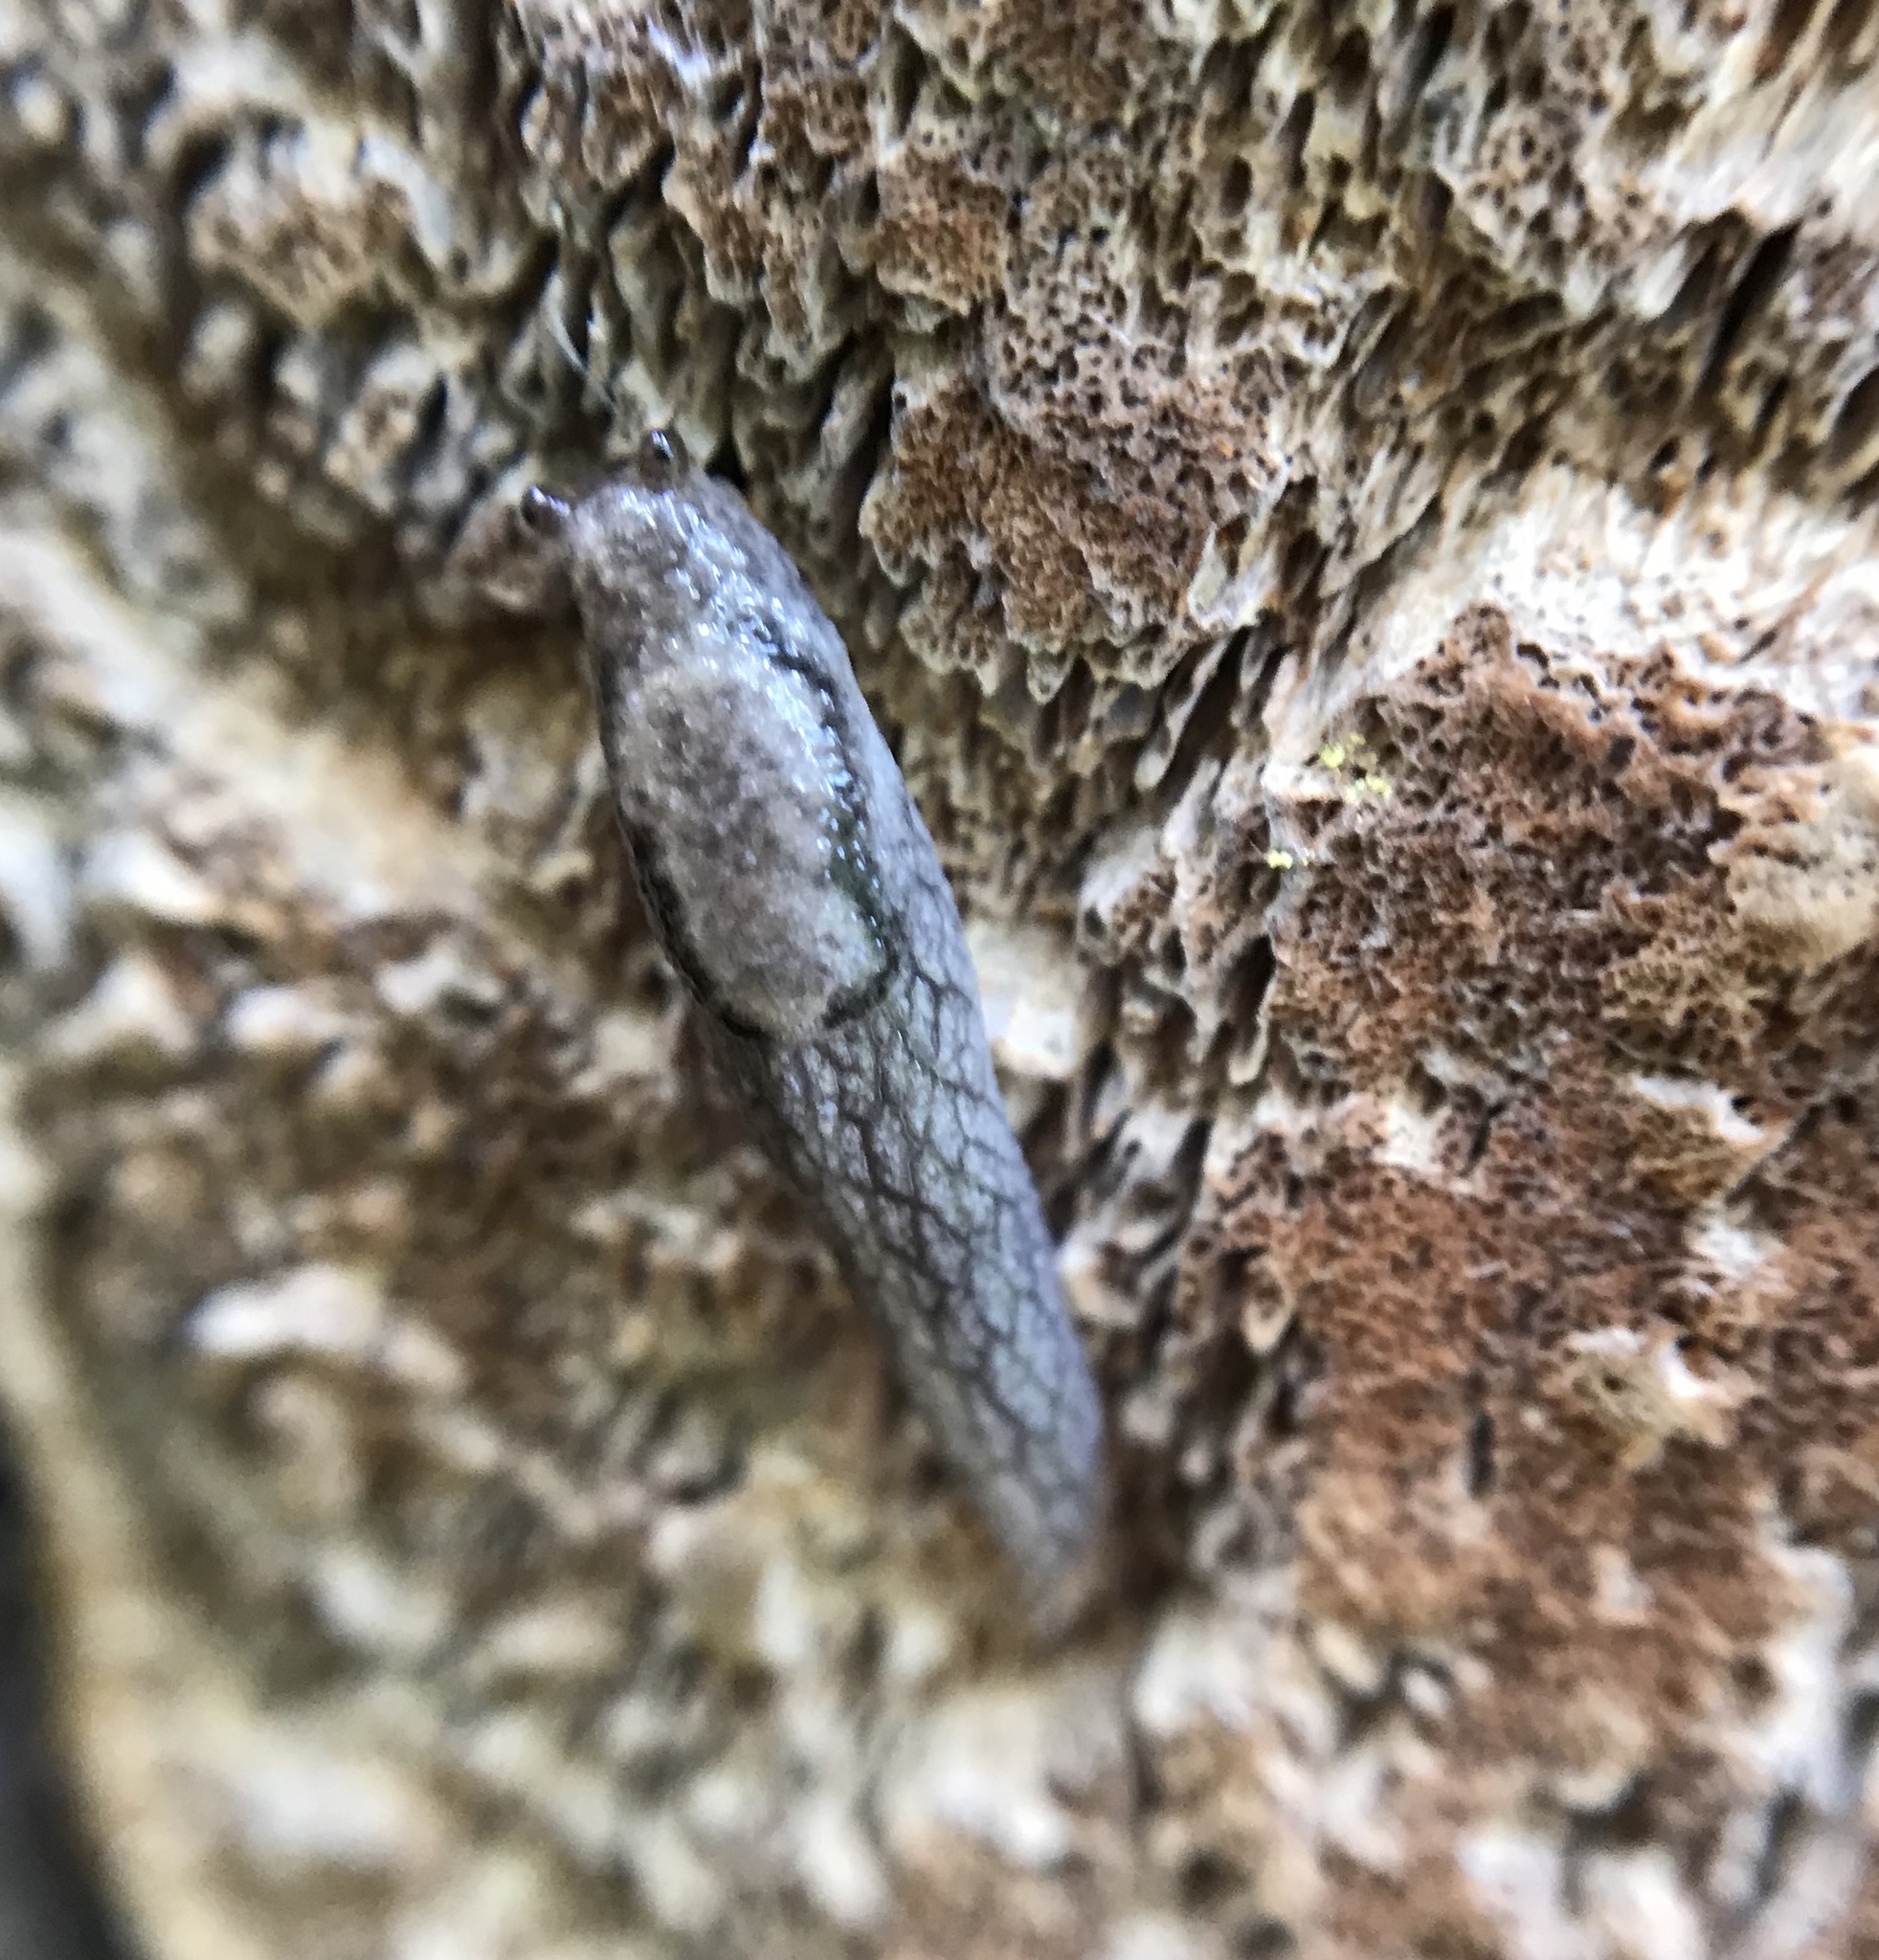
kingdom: Animalia
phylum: Mollusca
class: Gastropoda
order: Stylommatophora
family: Ariolimacidae
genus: Prophysaon
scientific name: Prophysaon andersonii
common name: Reticulate taildropper
